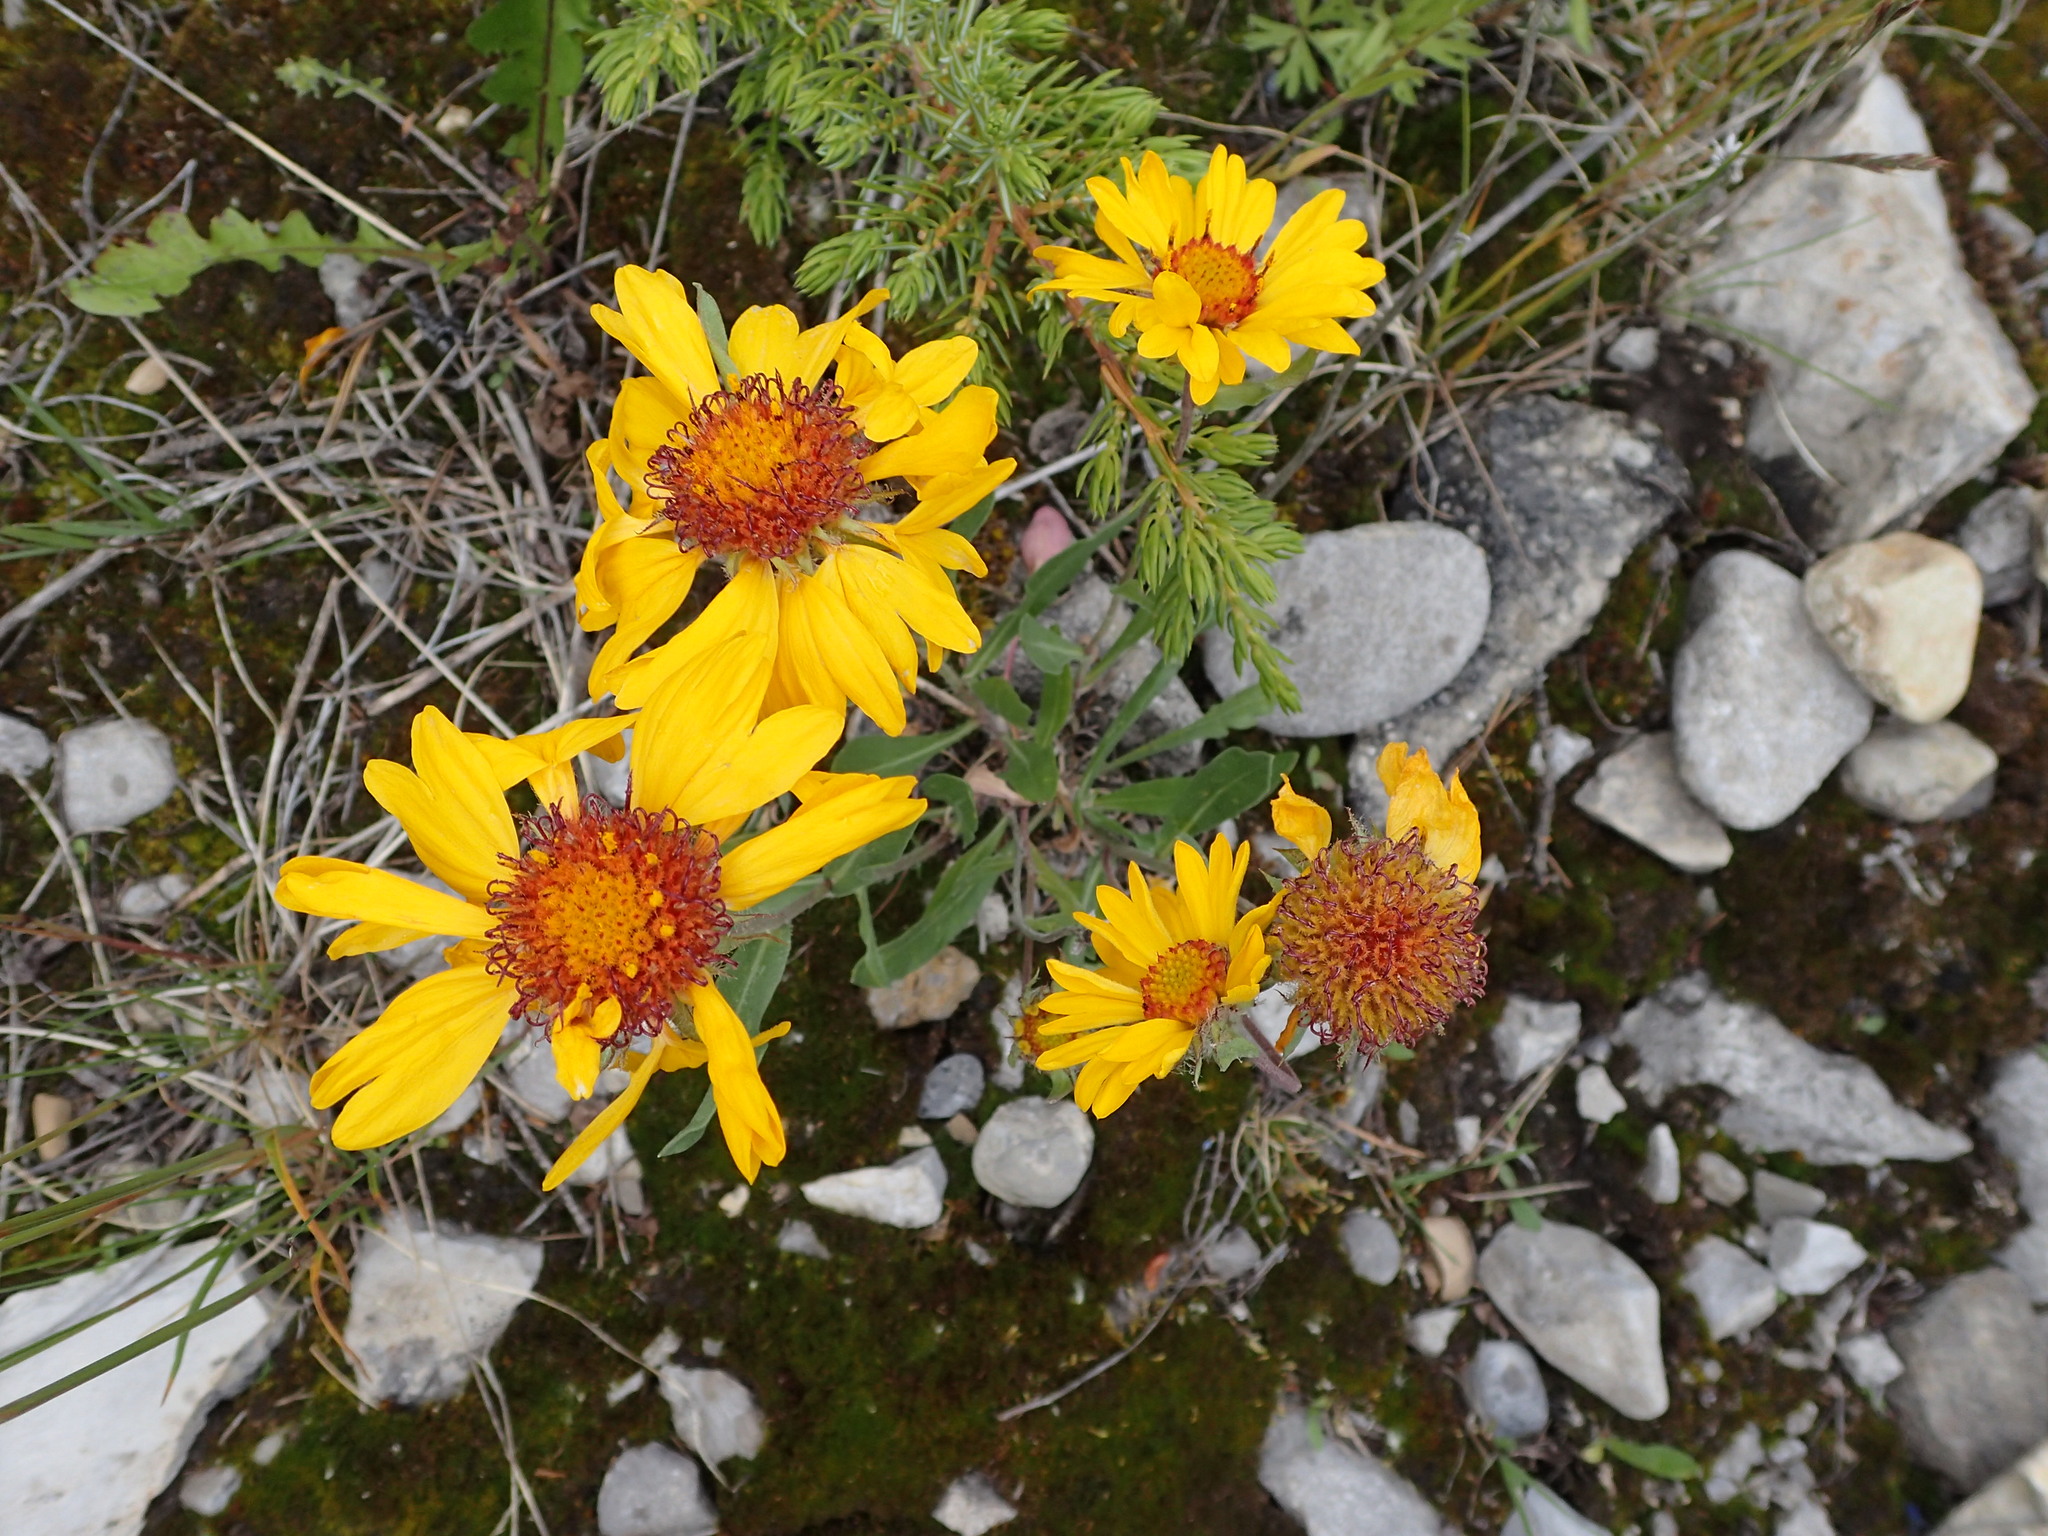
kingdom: Plantae
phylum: Tracheophyta
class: Magnoliopsida
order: Asterales
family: Asteraceae
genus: Gaillardia
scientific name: Gaillardia aristata
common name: Blanket-flower
